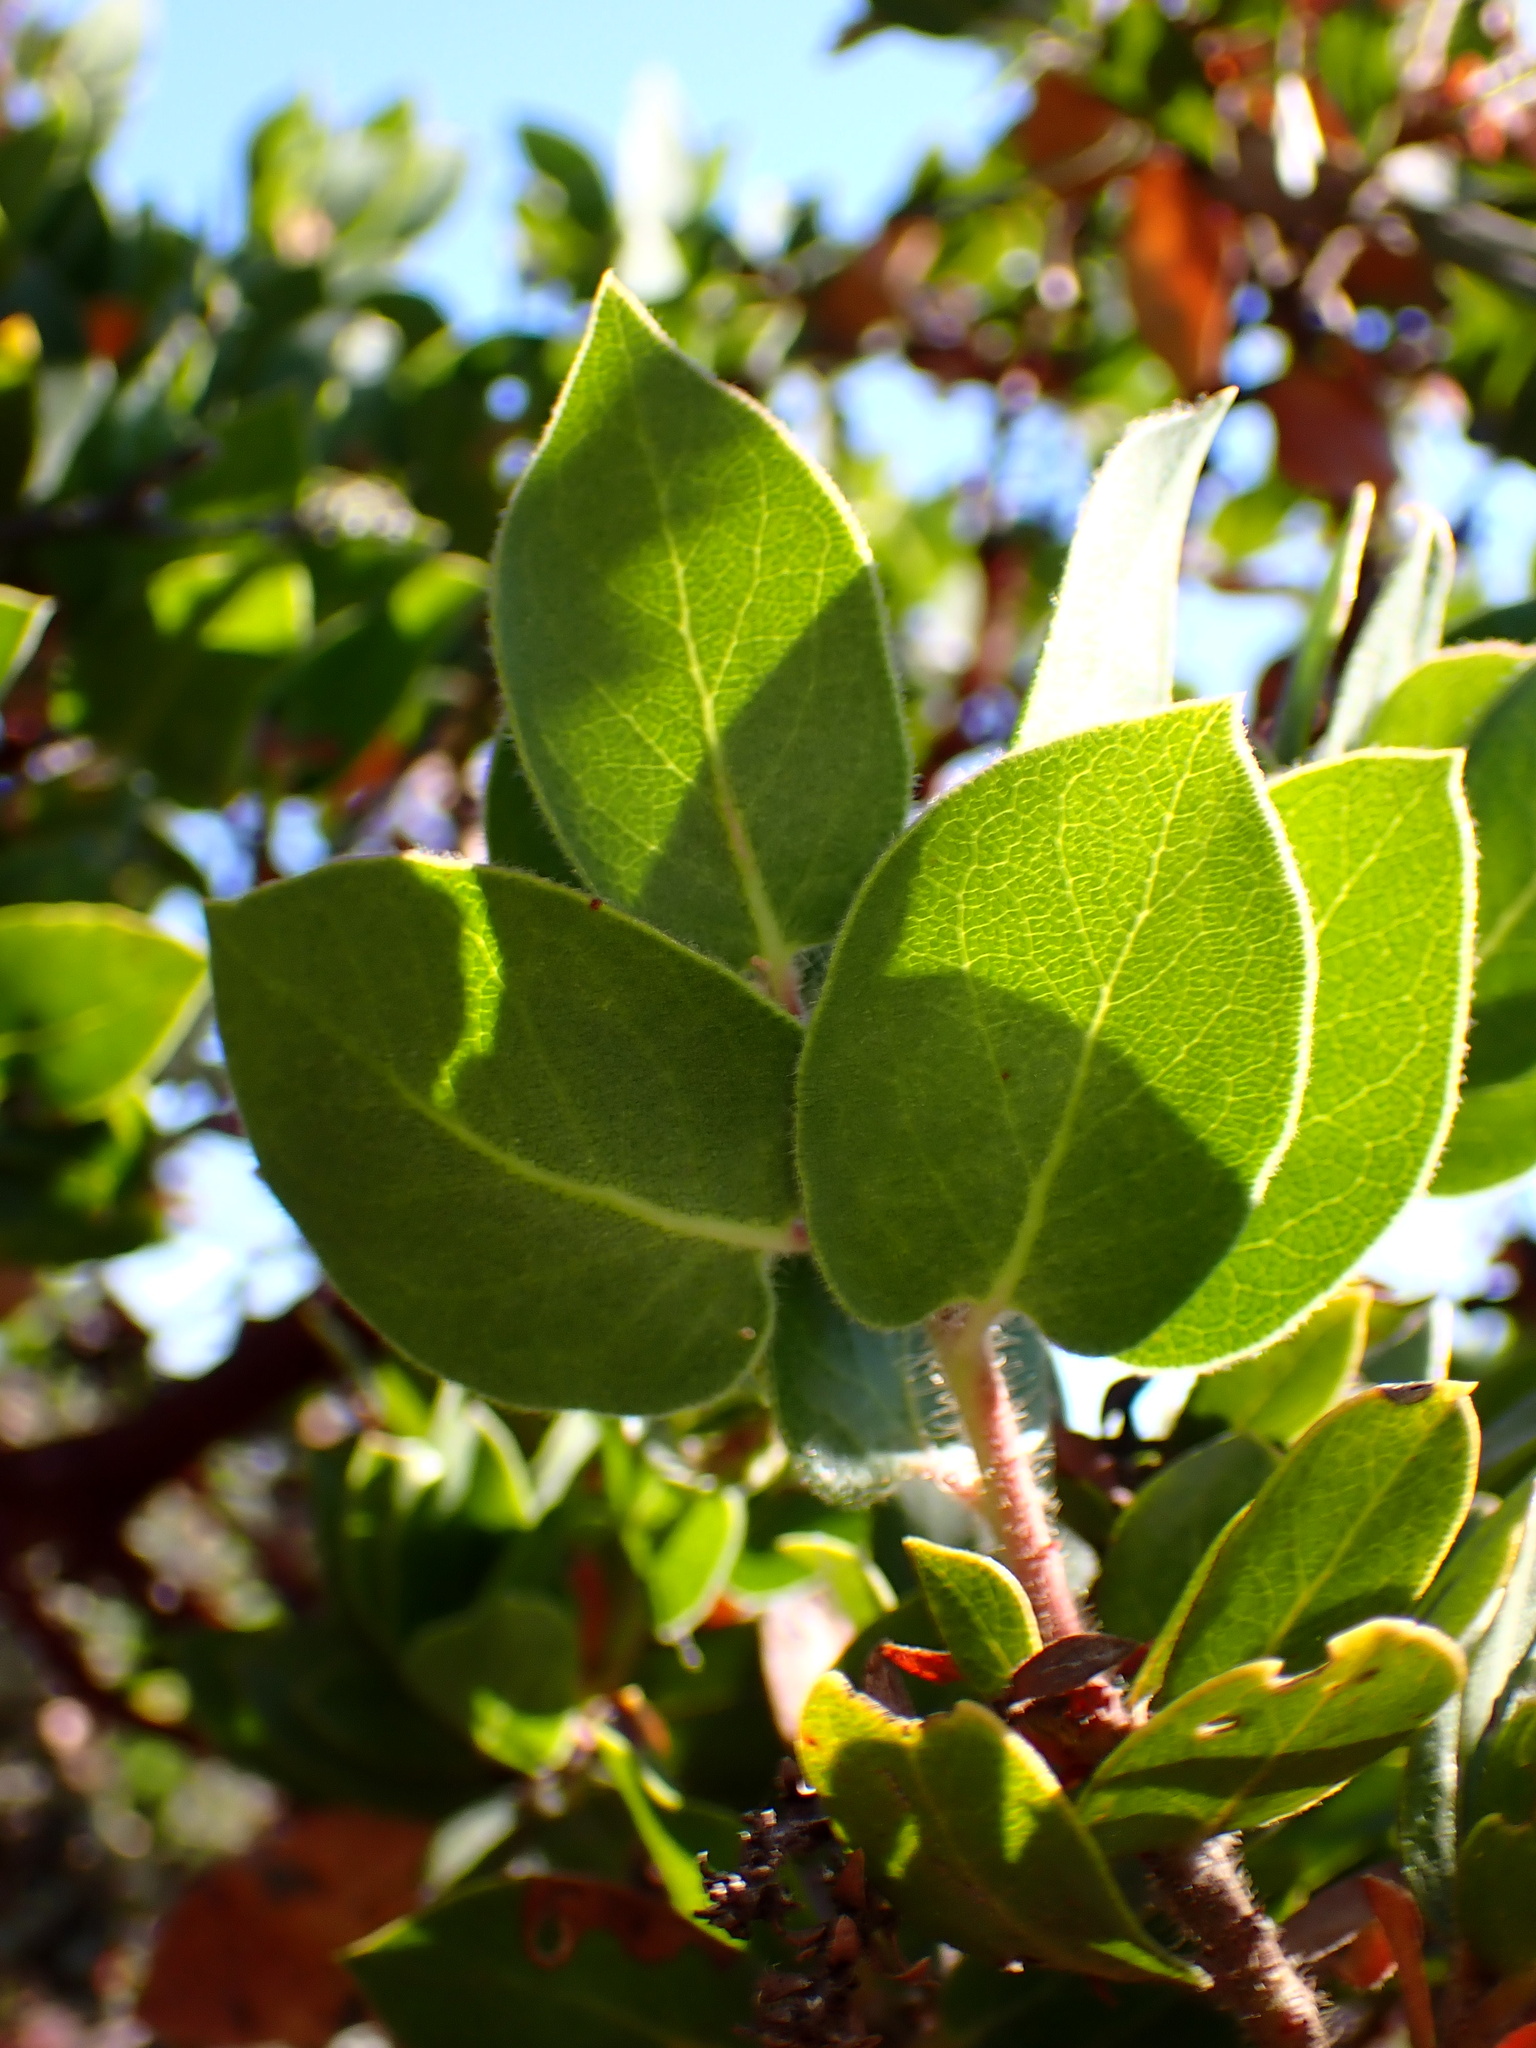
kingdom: Plantae
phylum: Tracheophyta
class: Magnoliopsida
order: Ericales
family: Ericaceae
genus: Arctostaphylos
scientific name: Arctostaphylos crustacea
